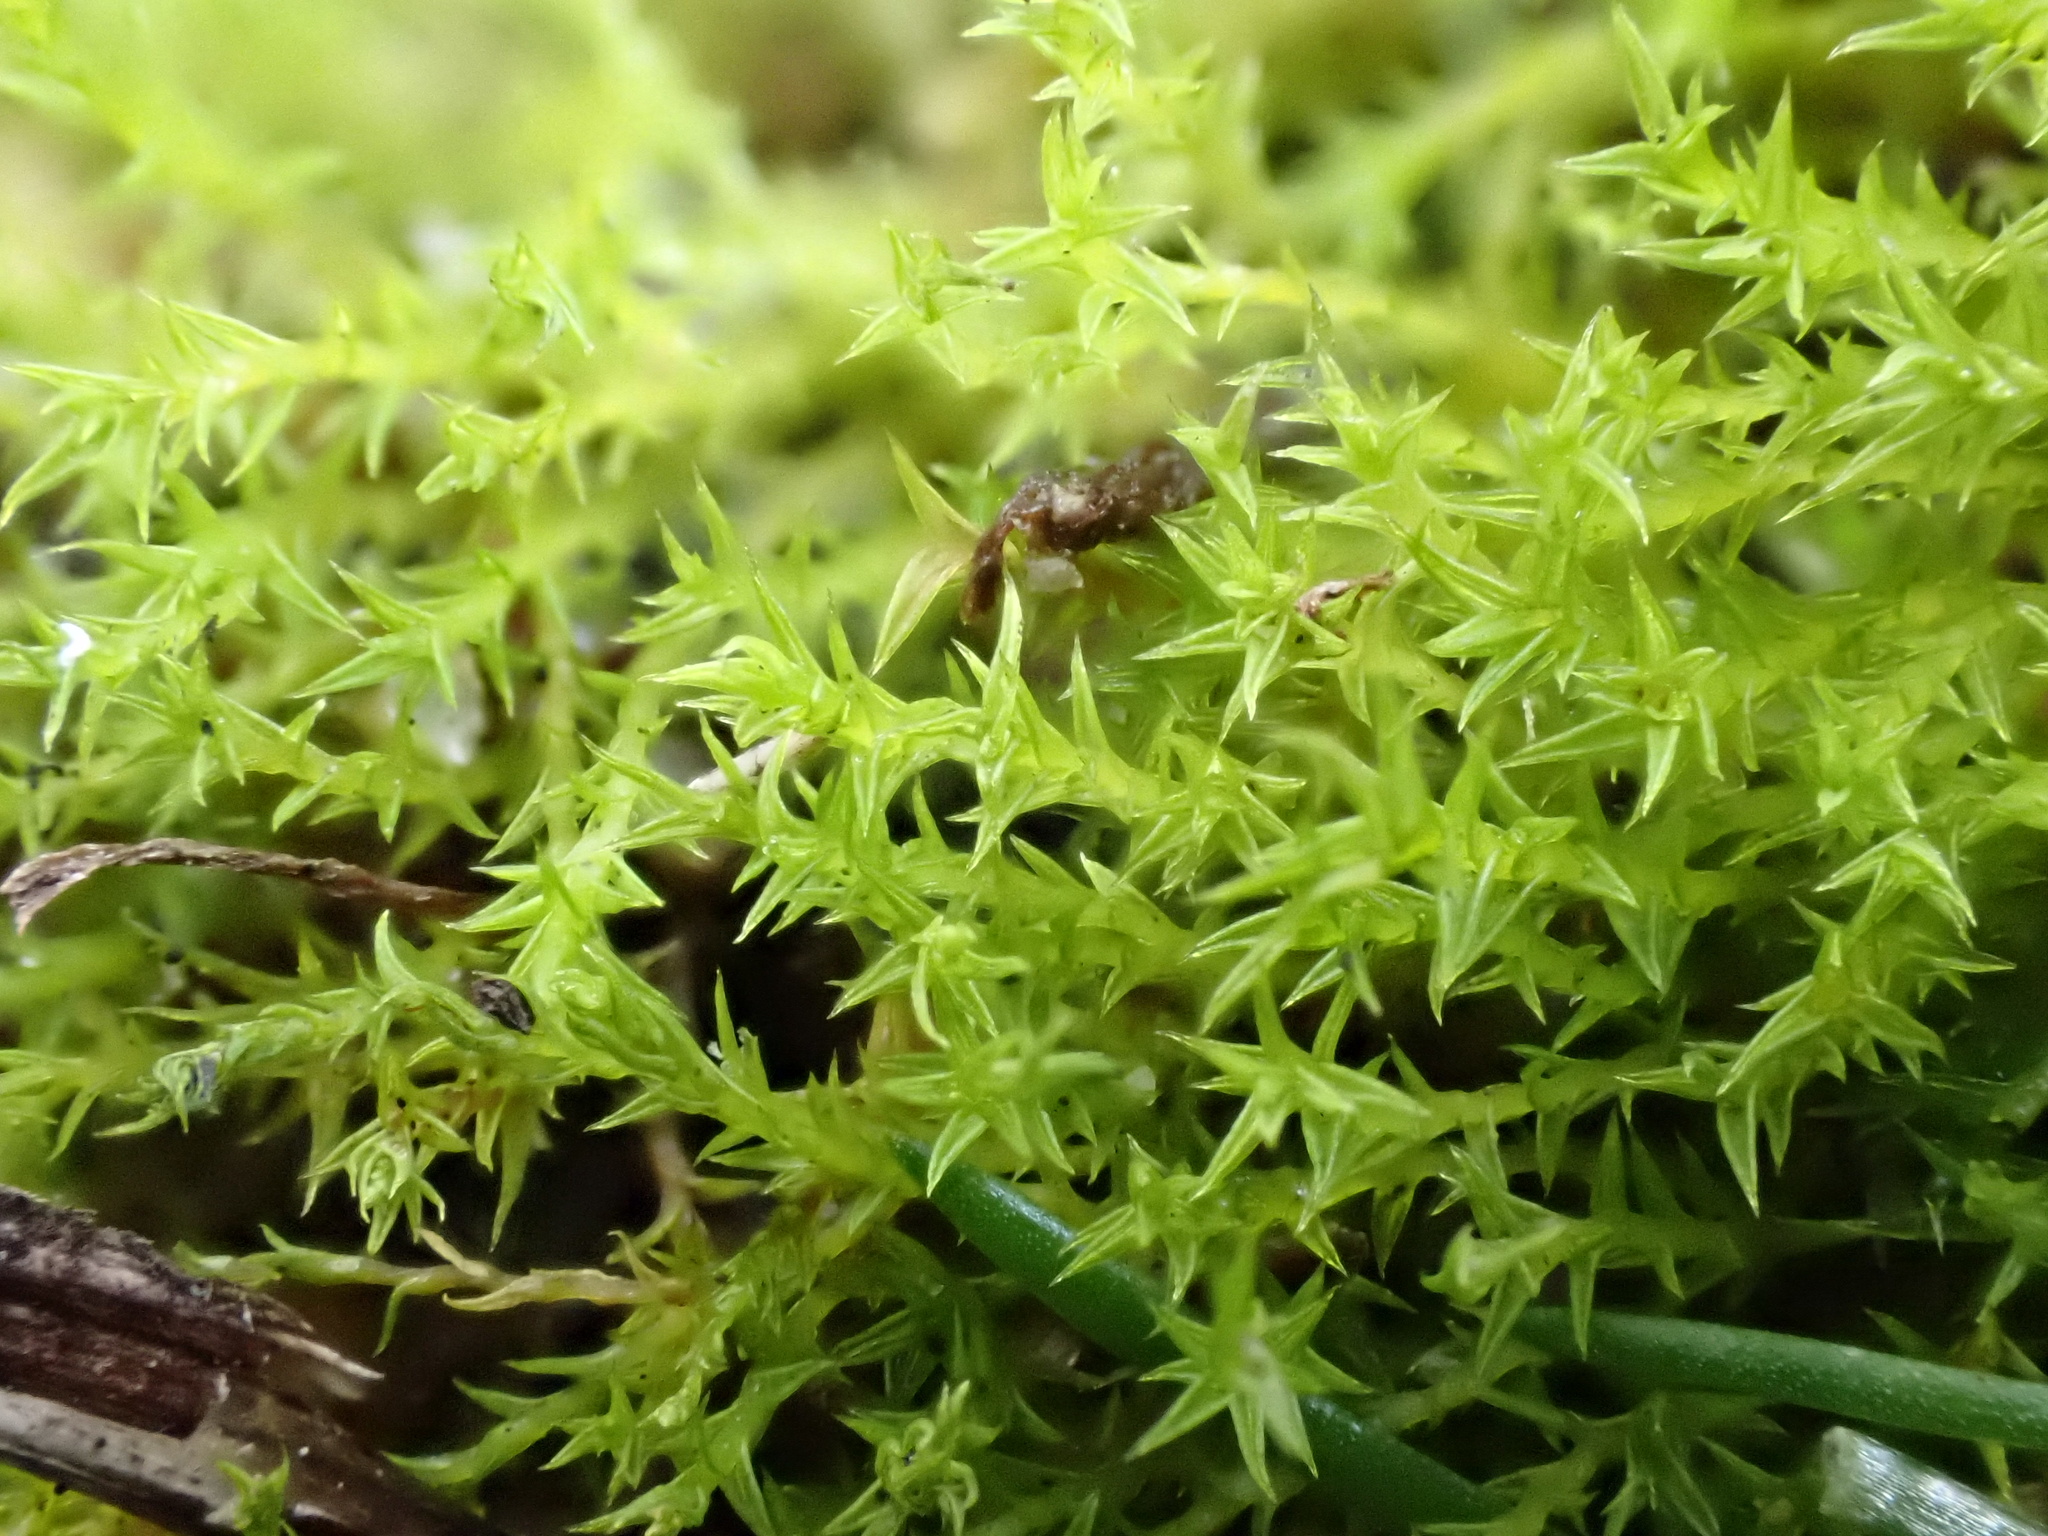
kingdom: Plantae
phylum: Bryophyta
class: Bryopsida
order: Pottiales
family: Pottiaceae
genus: Pseudocrossidium
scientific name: Pseudocrossidium hornschuchianum
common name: Hornschuch's beard-moss
